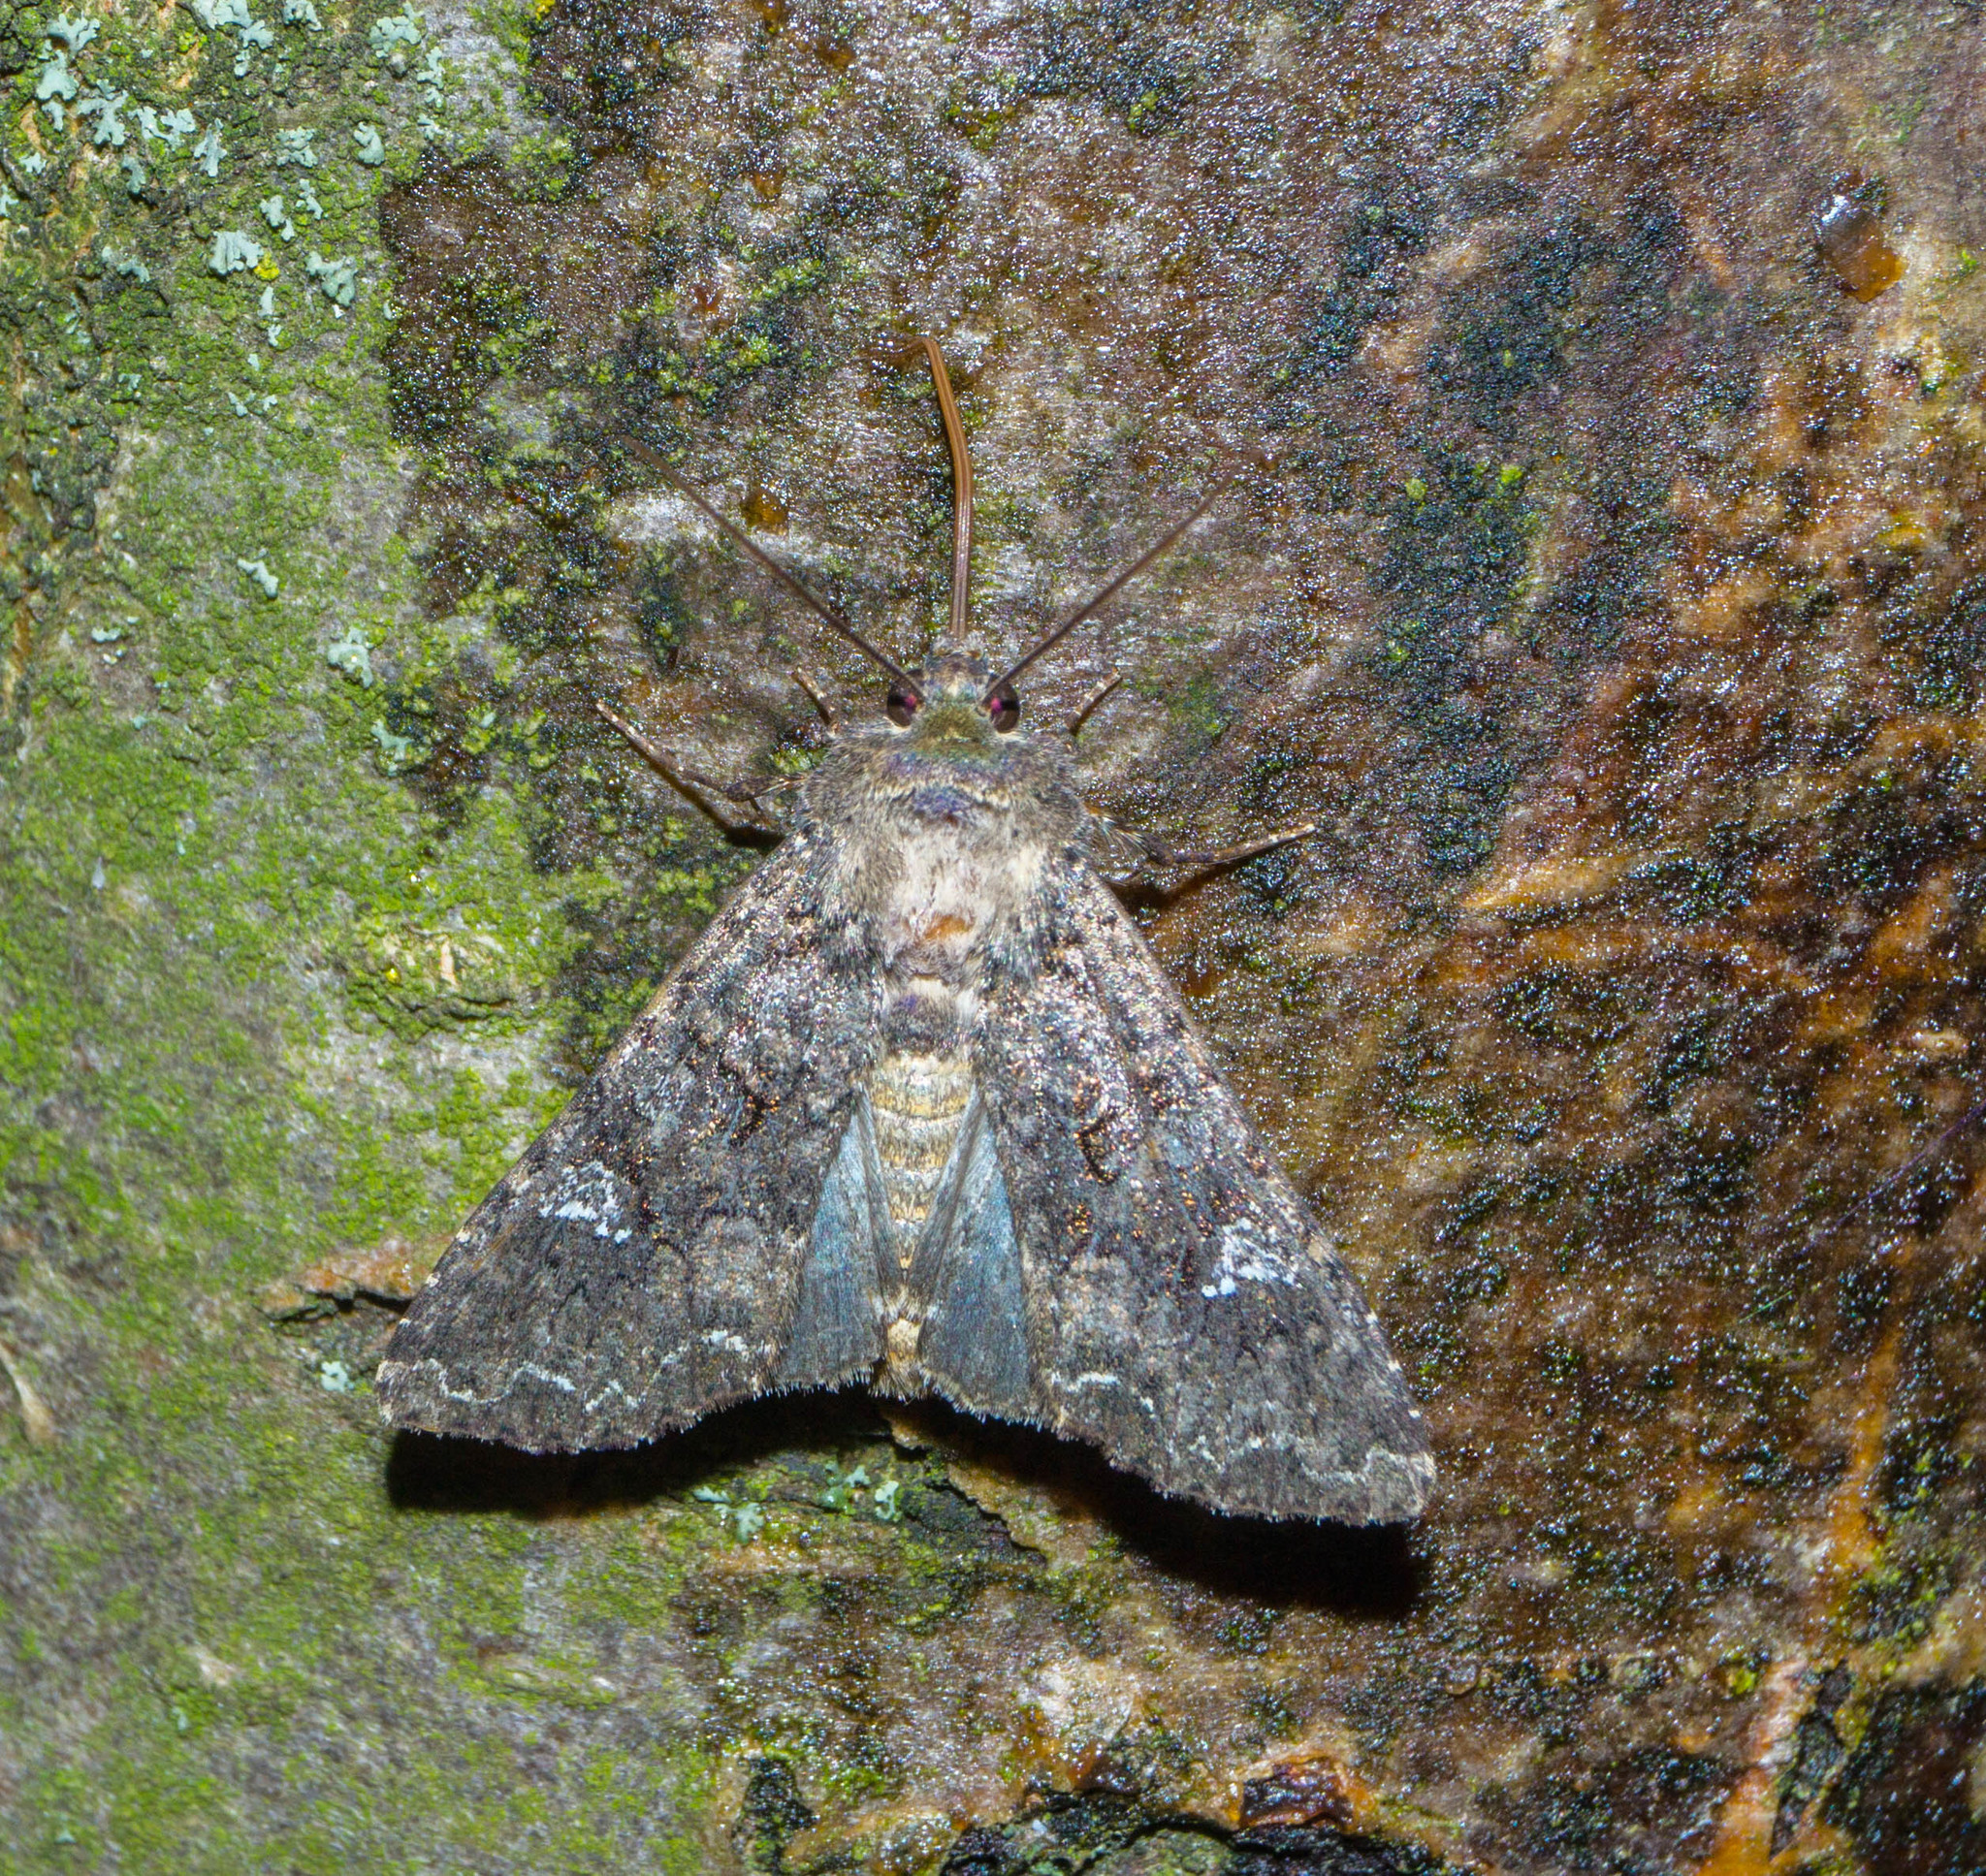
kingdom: Animalia
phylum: Arthropoda
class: Insecta
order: Lepidoptera
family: Noctuidae
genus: Mamestra
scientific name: Mamestra brassicae
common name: Cabbage moth
